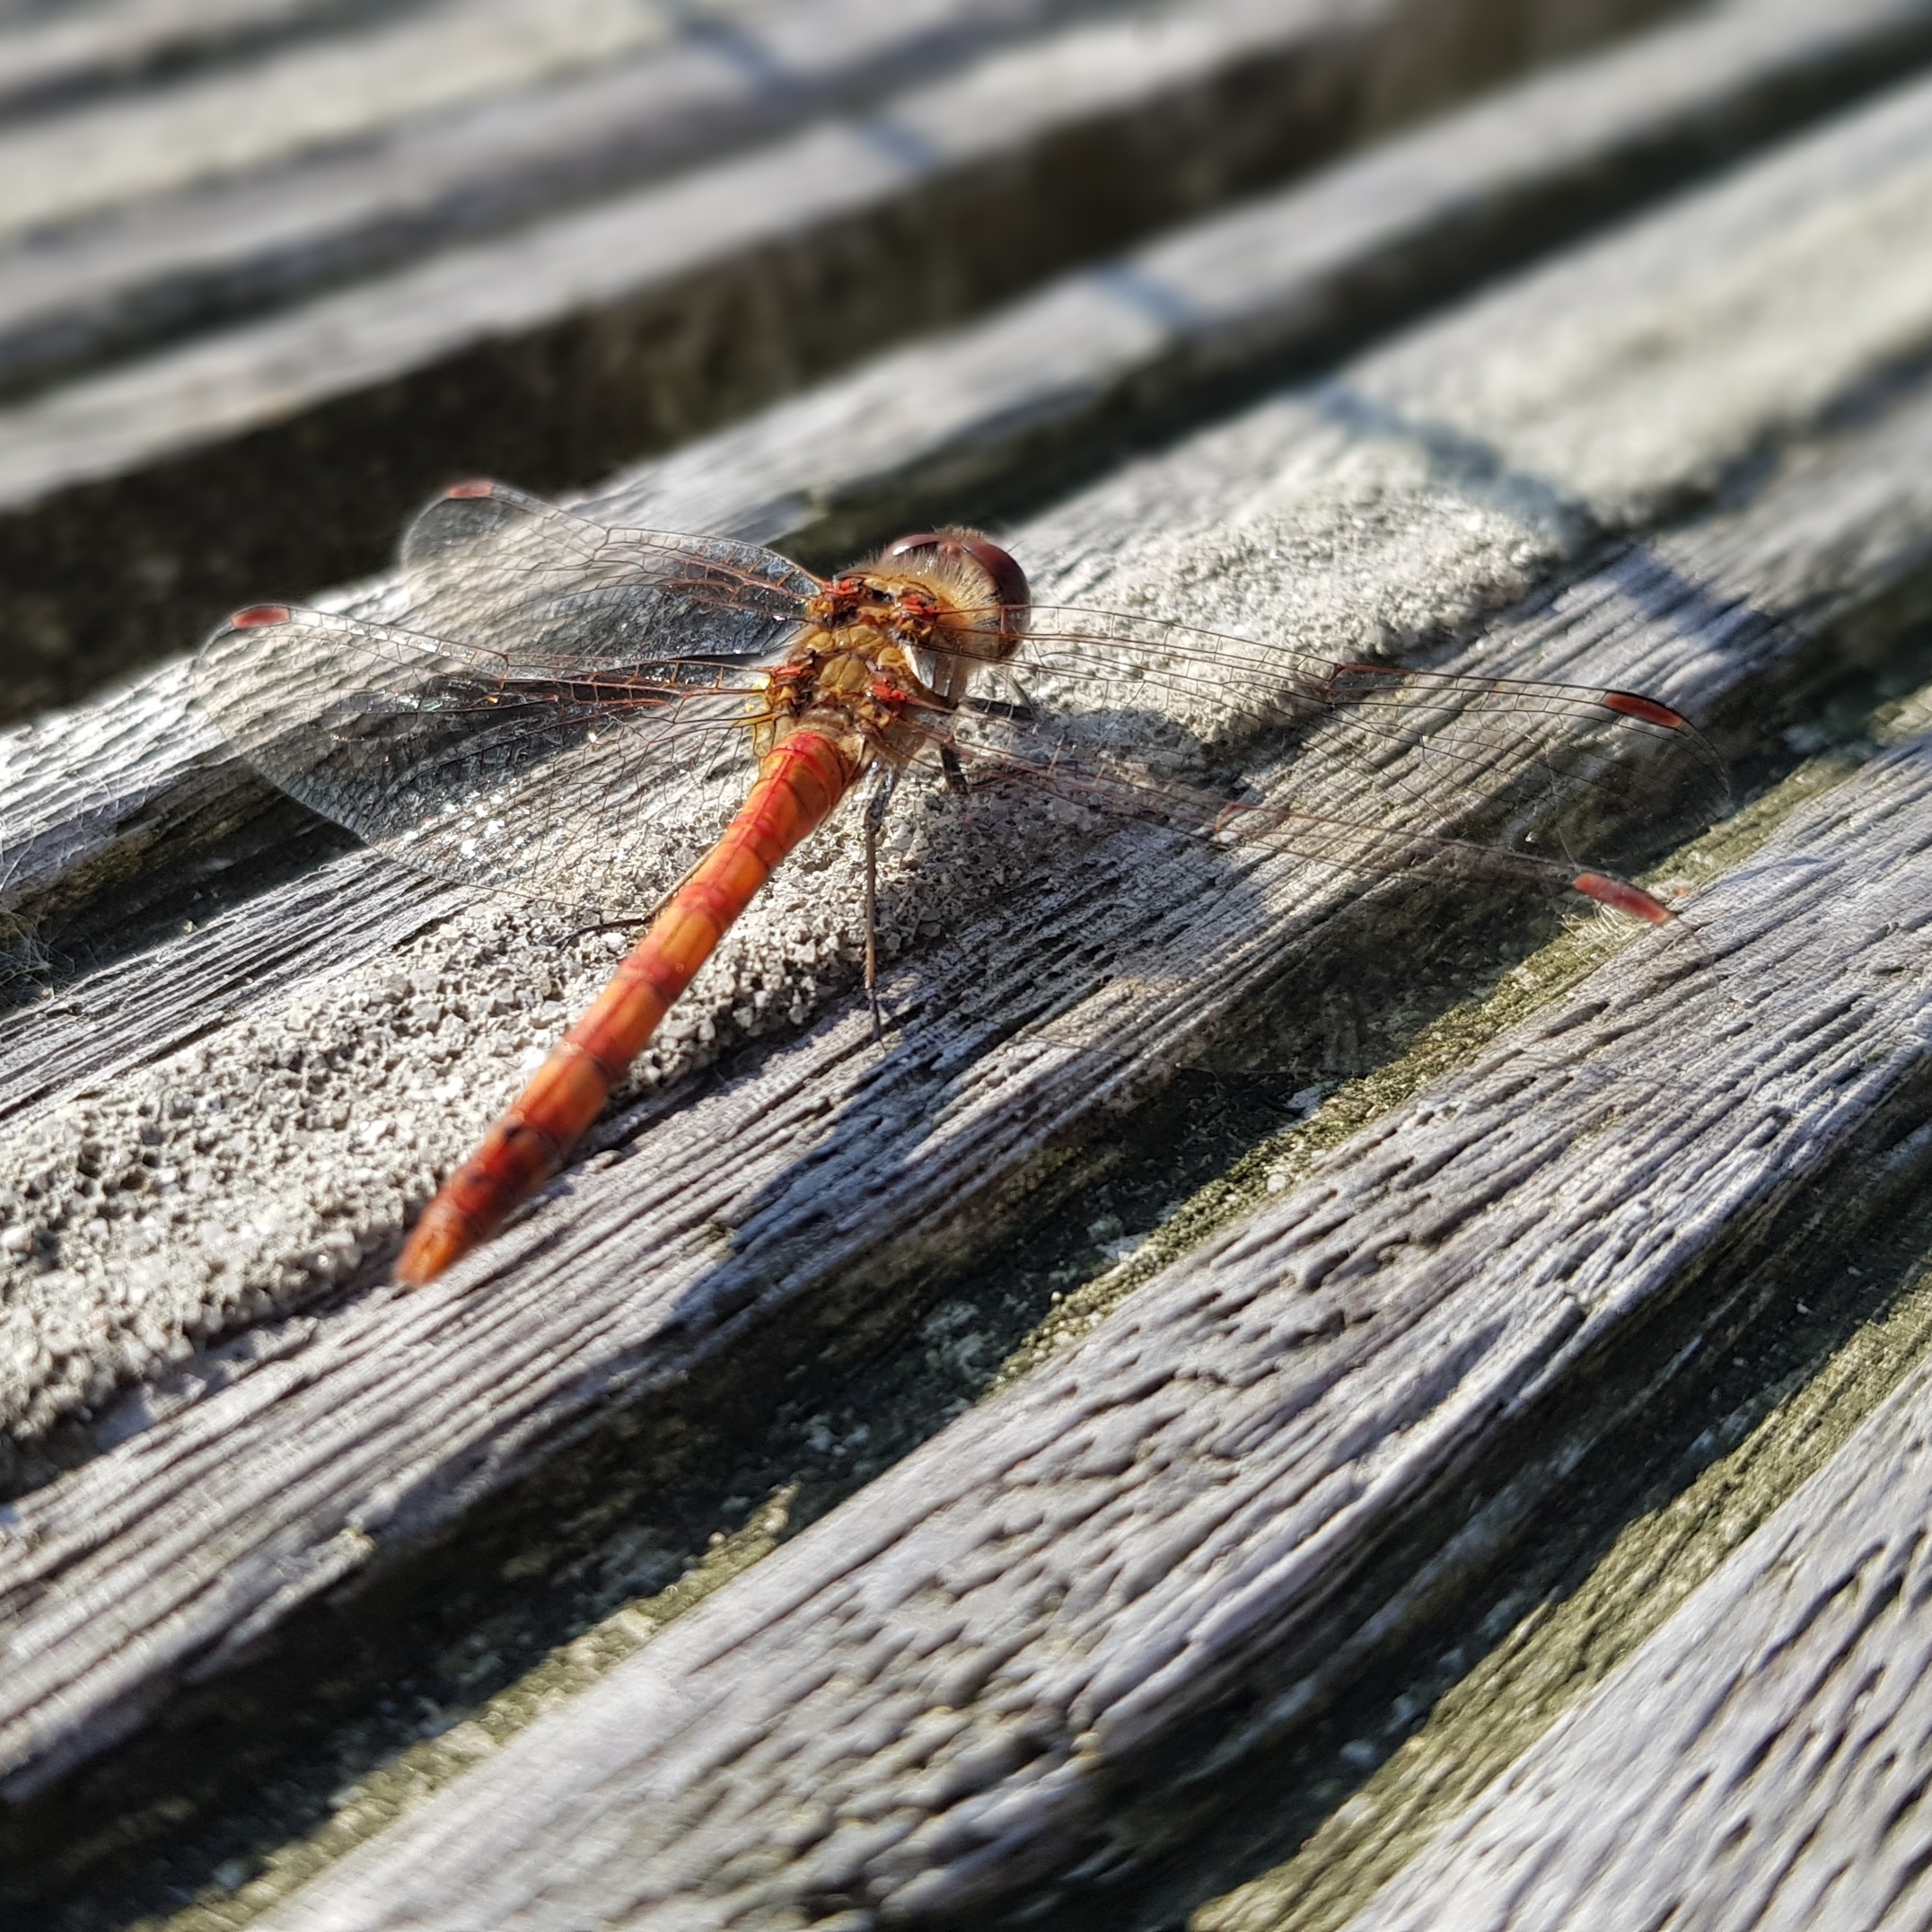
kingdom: Animalia
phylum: Arthropoda
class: Insecta
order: Odonata
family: Libellulidae
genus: Sympetrum
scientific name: Sympetrum striolatum
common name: Common darter
